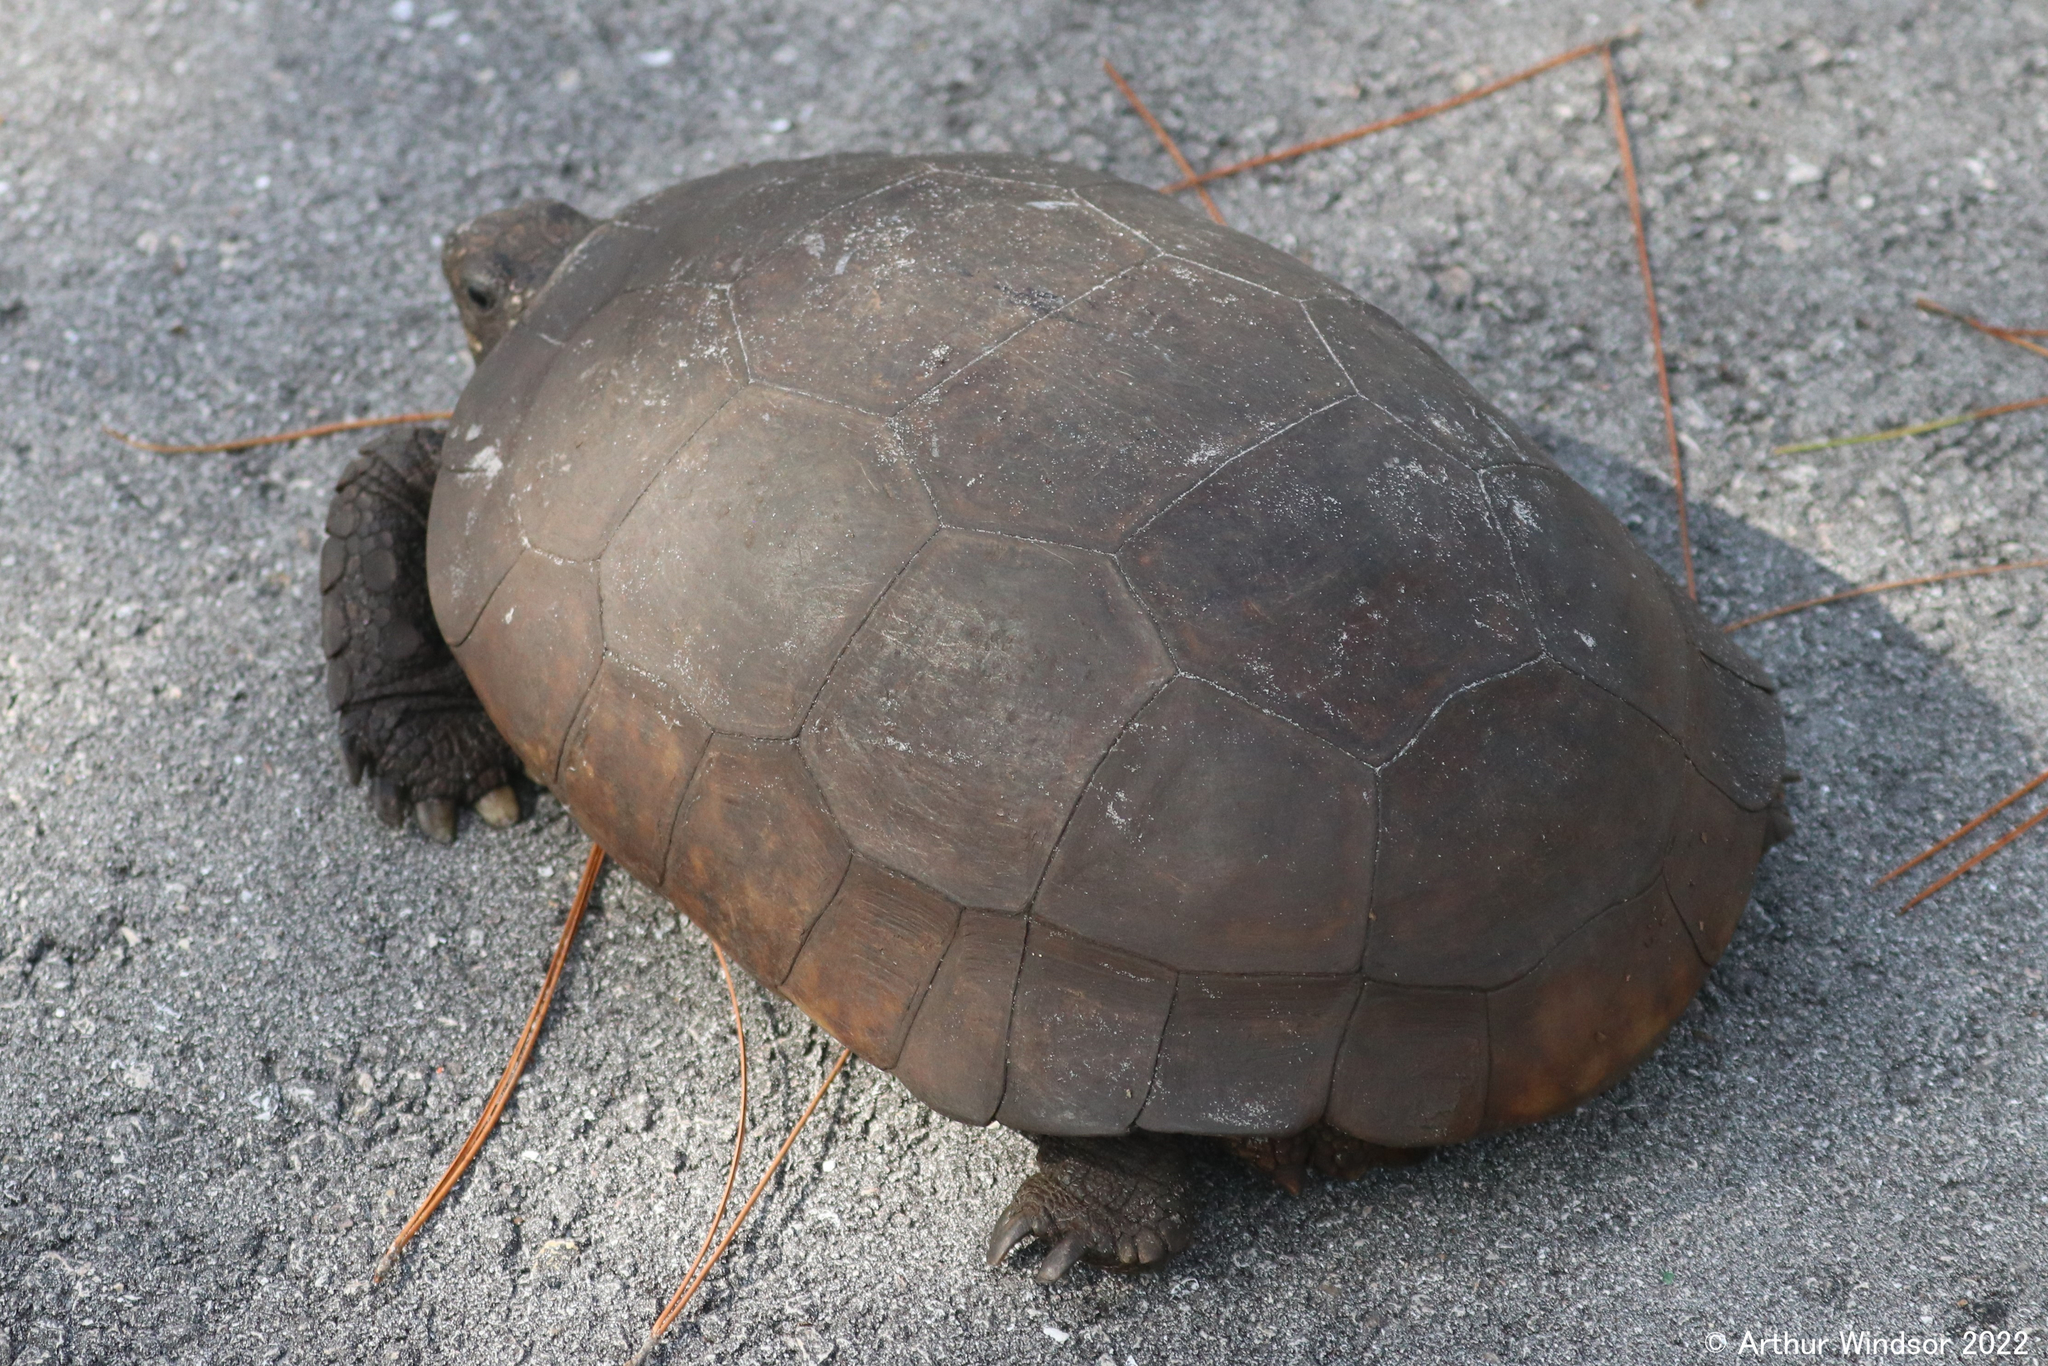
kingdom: Animalia
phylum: Chordata
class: Testudines
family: Testudinidae
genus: Gopherus
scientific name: Gopherus polyphemus
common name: Florida gopher tortoise
